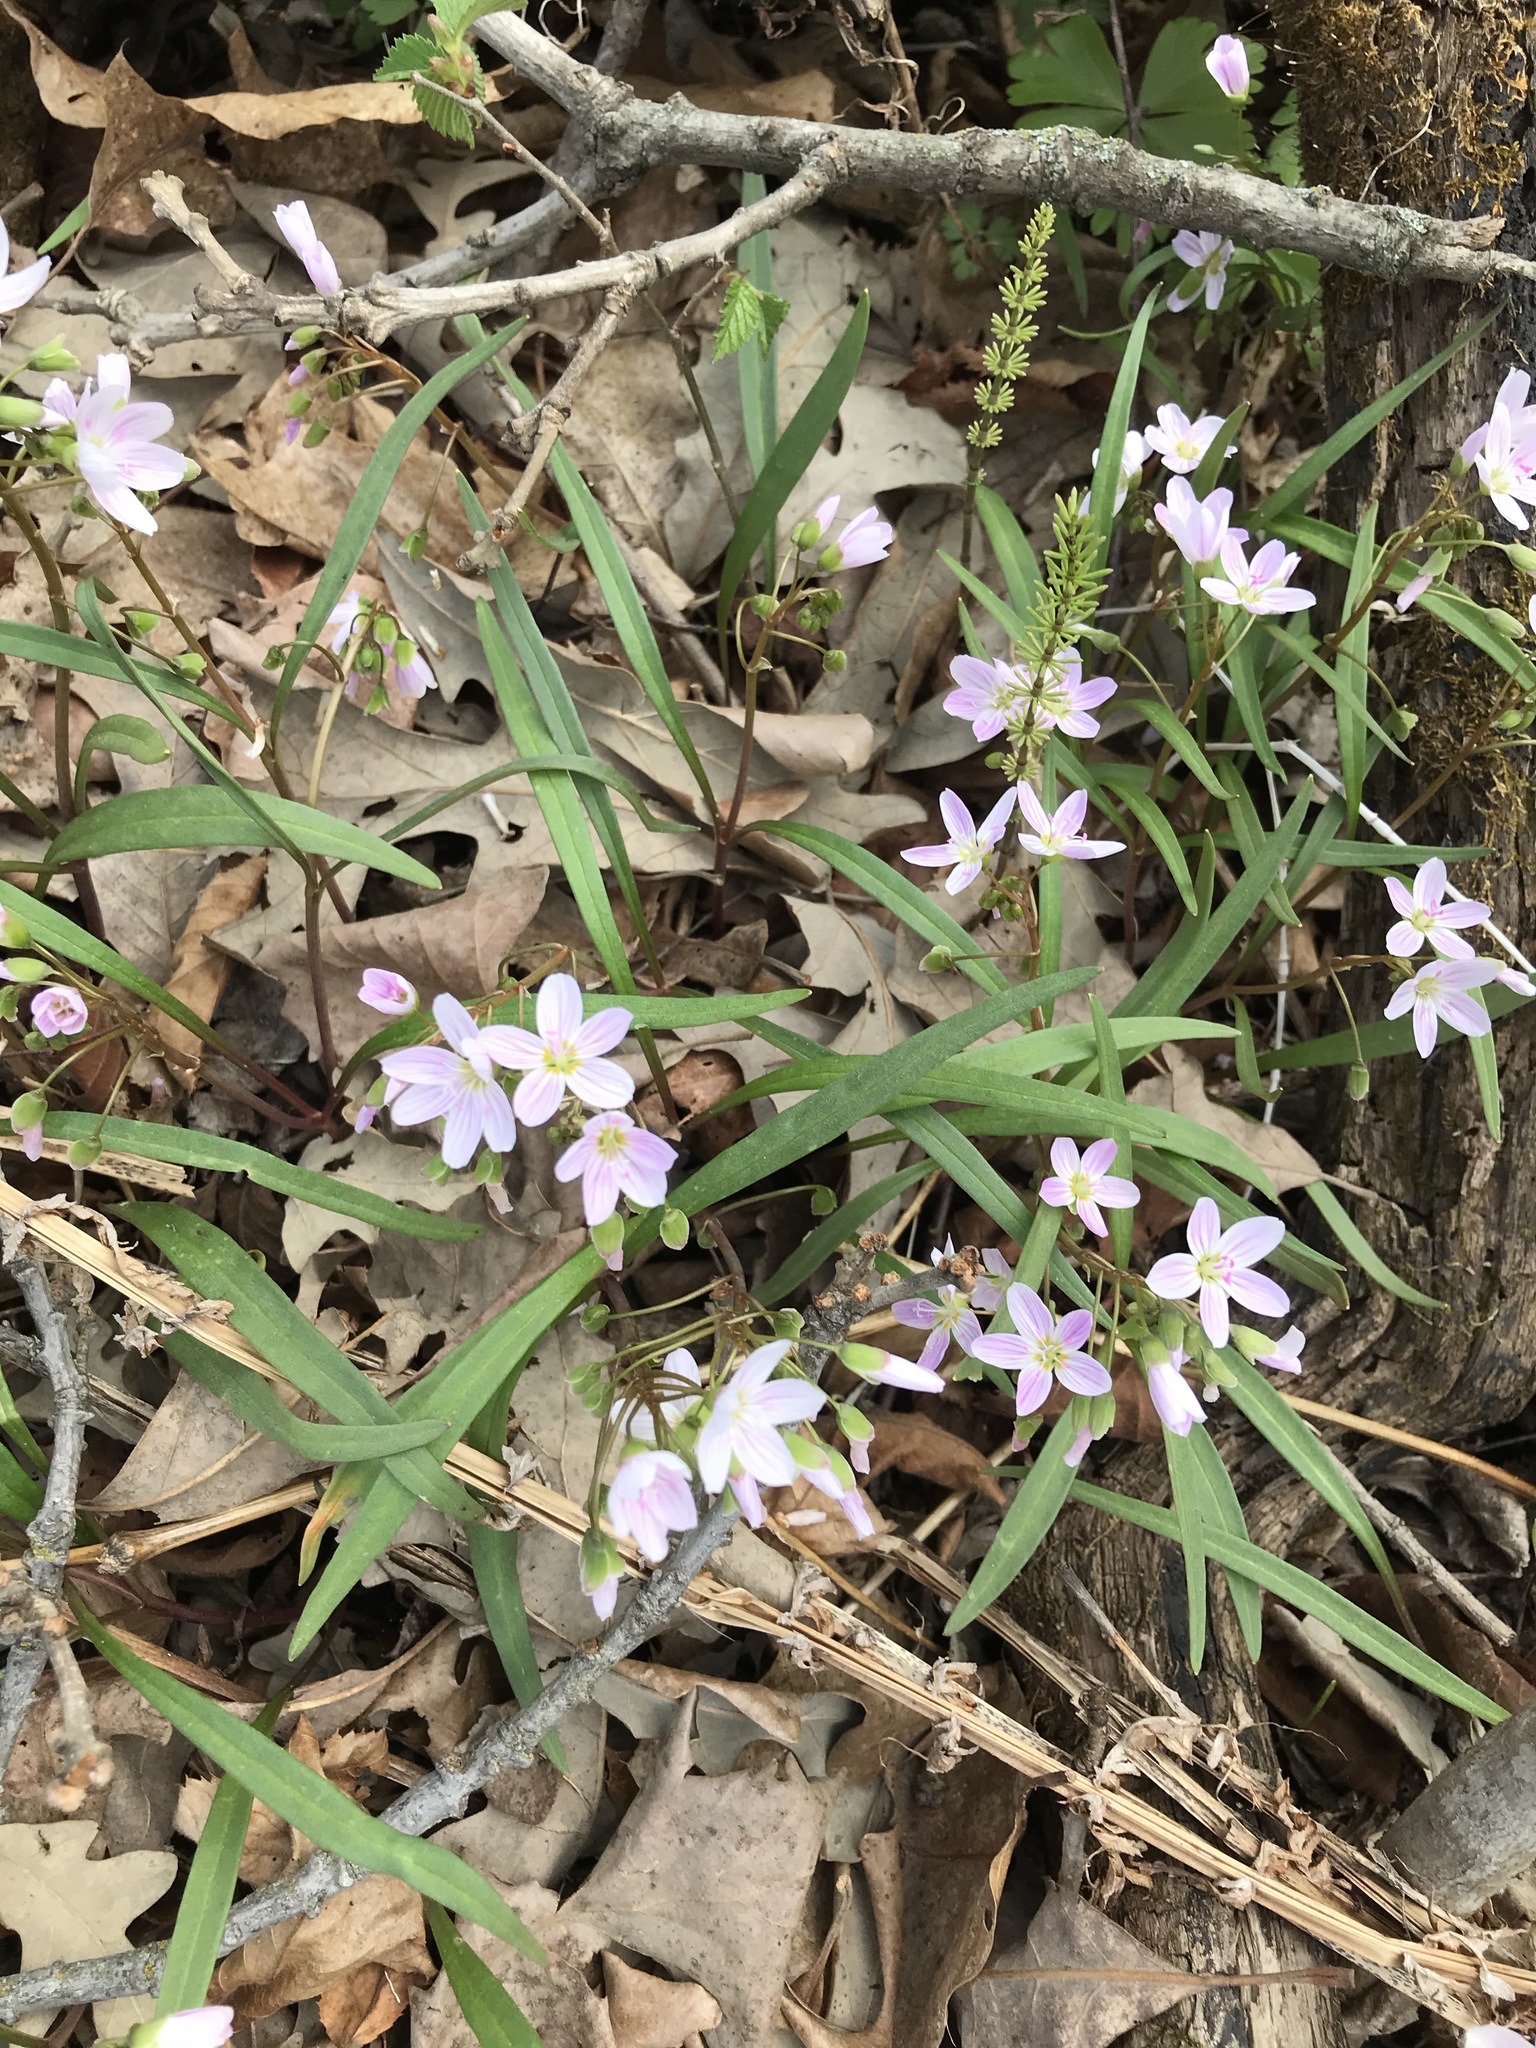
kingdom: Plantae
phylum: Tracheophyta
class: Magnoliopsida
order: Caryophyllales
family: Montiaceae
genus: Claytonia
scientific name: Claytonia virginica
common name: Virginia springbeauty
